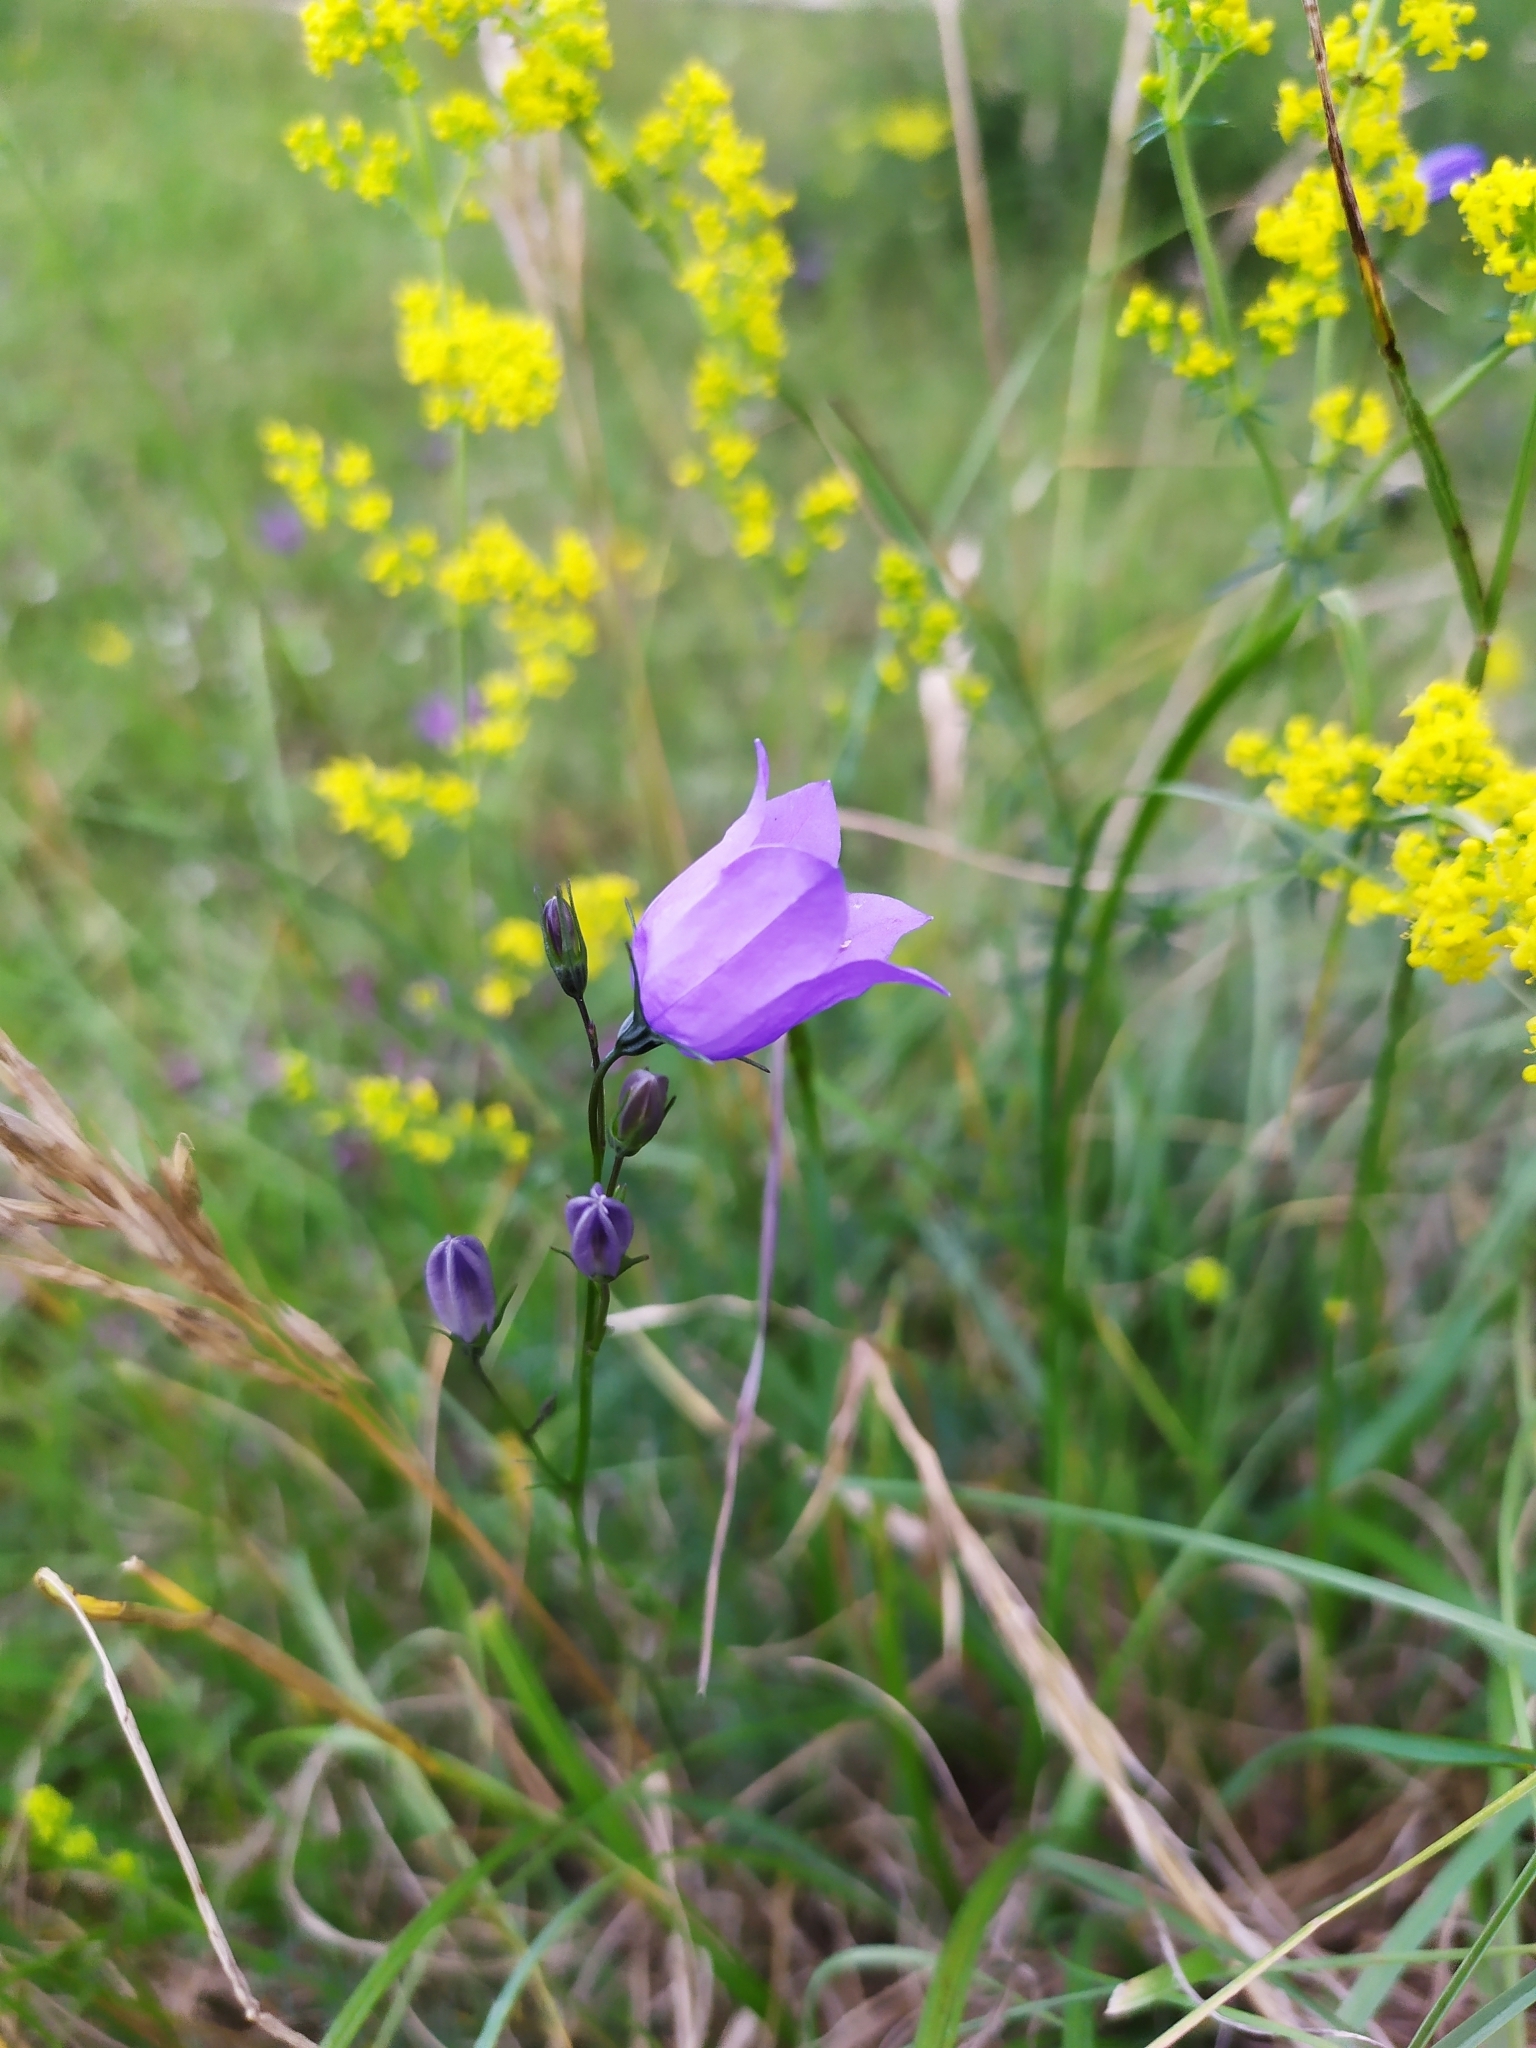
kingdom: Plantae
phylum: Tracheophyta
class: Magnoliopsida
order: Asterales
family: Campanulaceae
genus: Campanula
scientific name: Campanula rotundifolia
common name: Harebell
